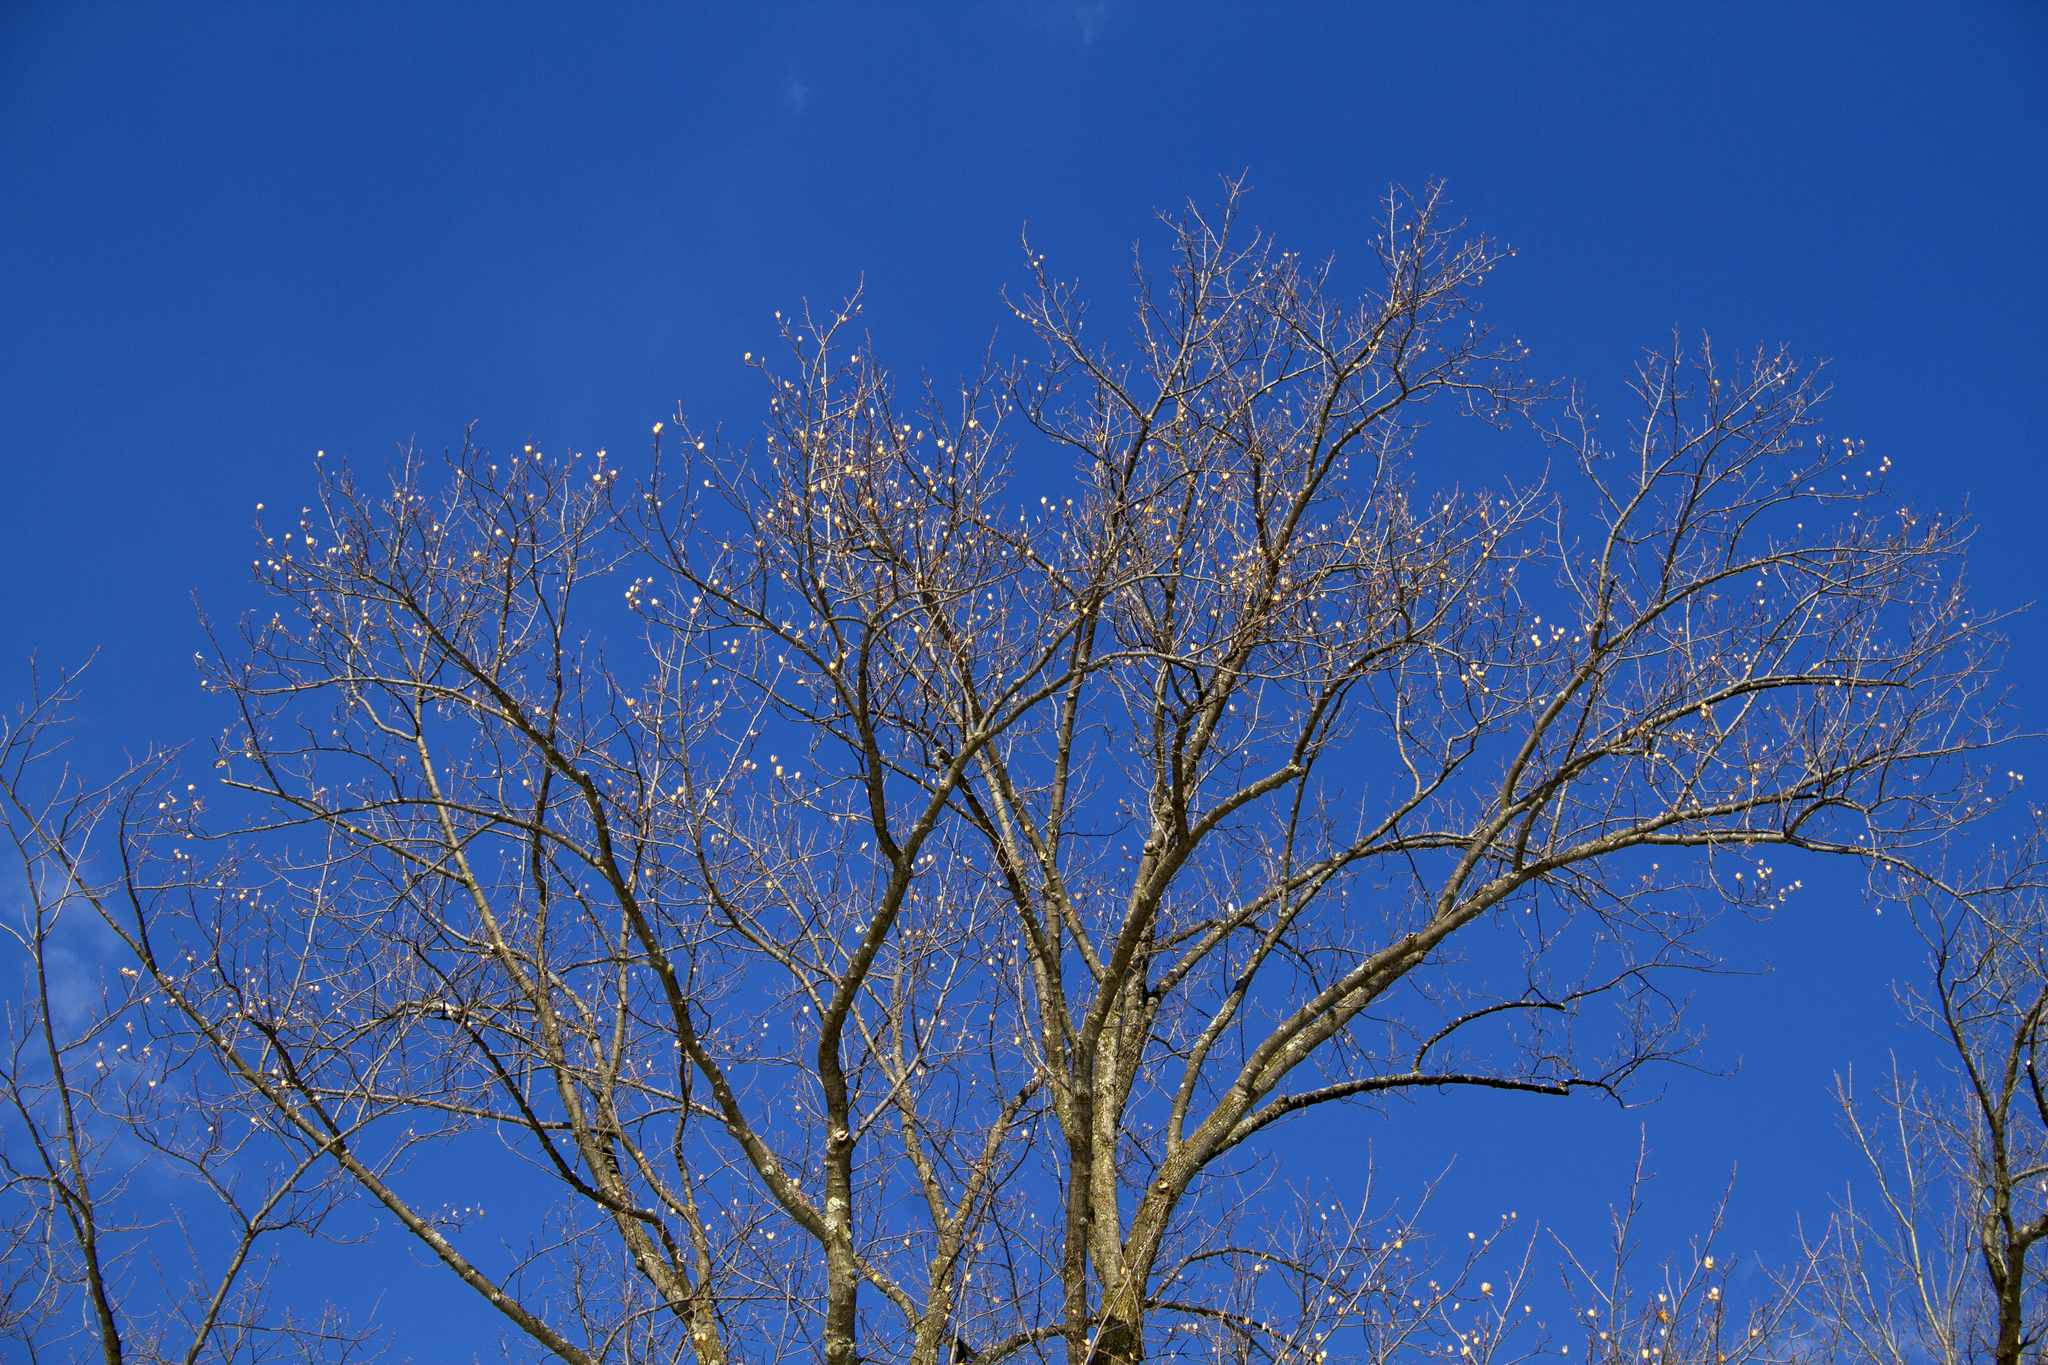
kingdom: Plantae
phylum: Tracheophyta
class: Magnoliopsida
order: Magnoliales
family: Magnoliaceae
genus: Liriodendron
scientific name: Liriodendron tulipifera
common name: Tulip tree
